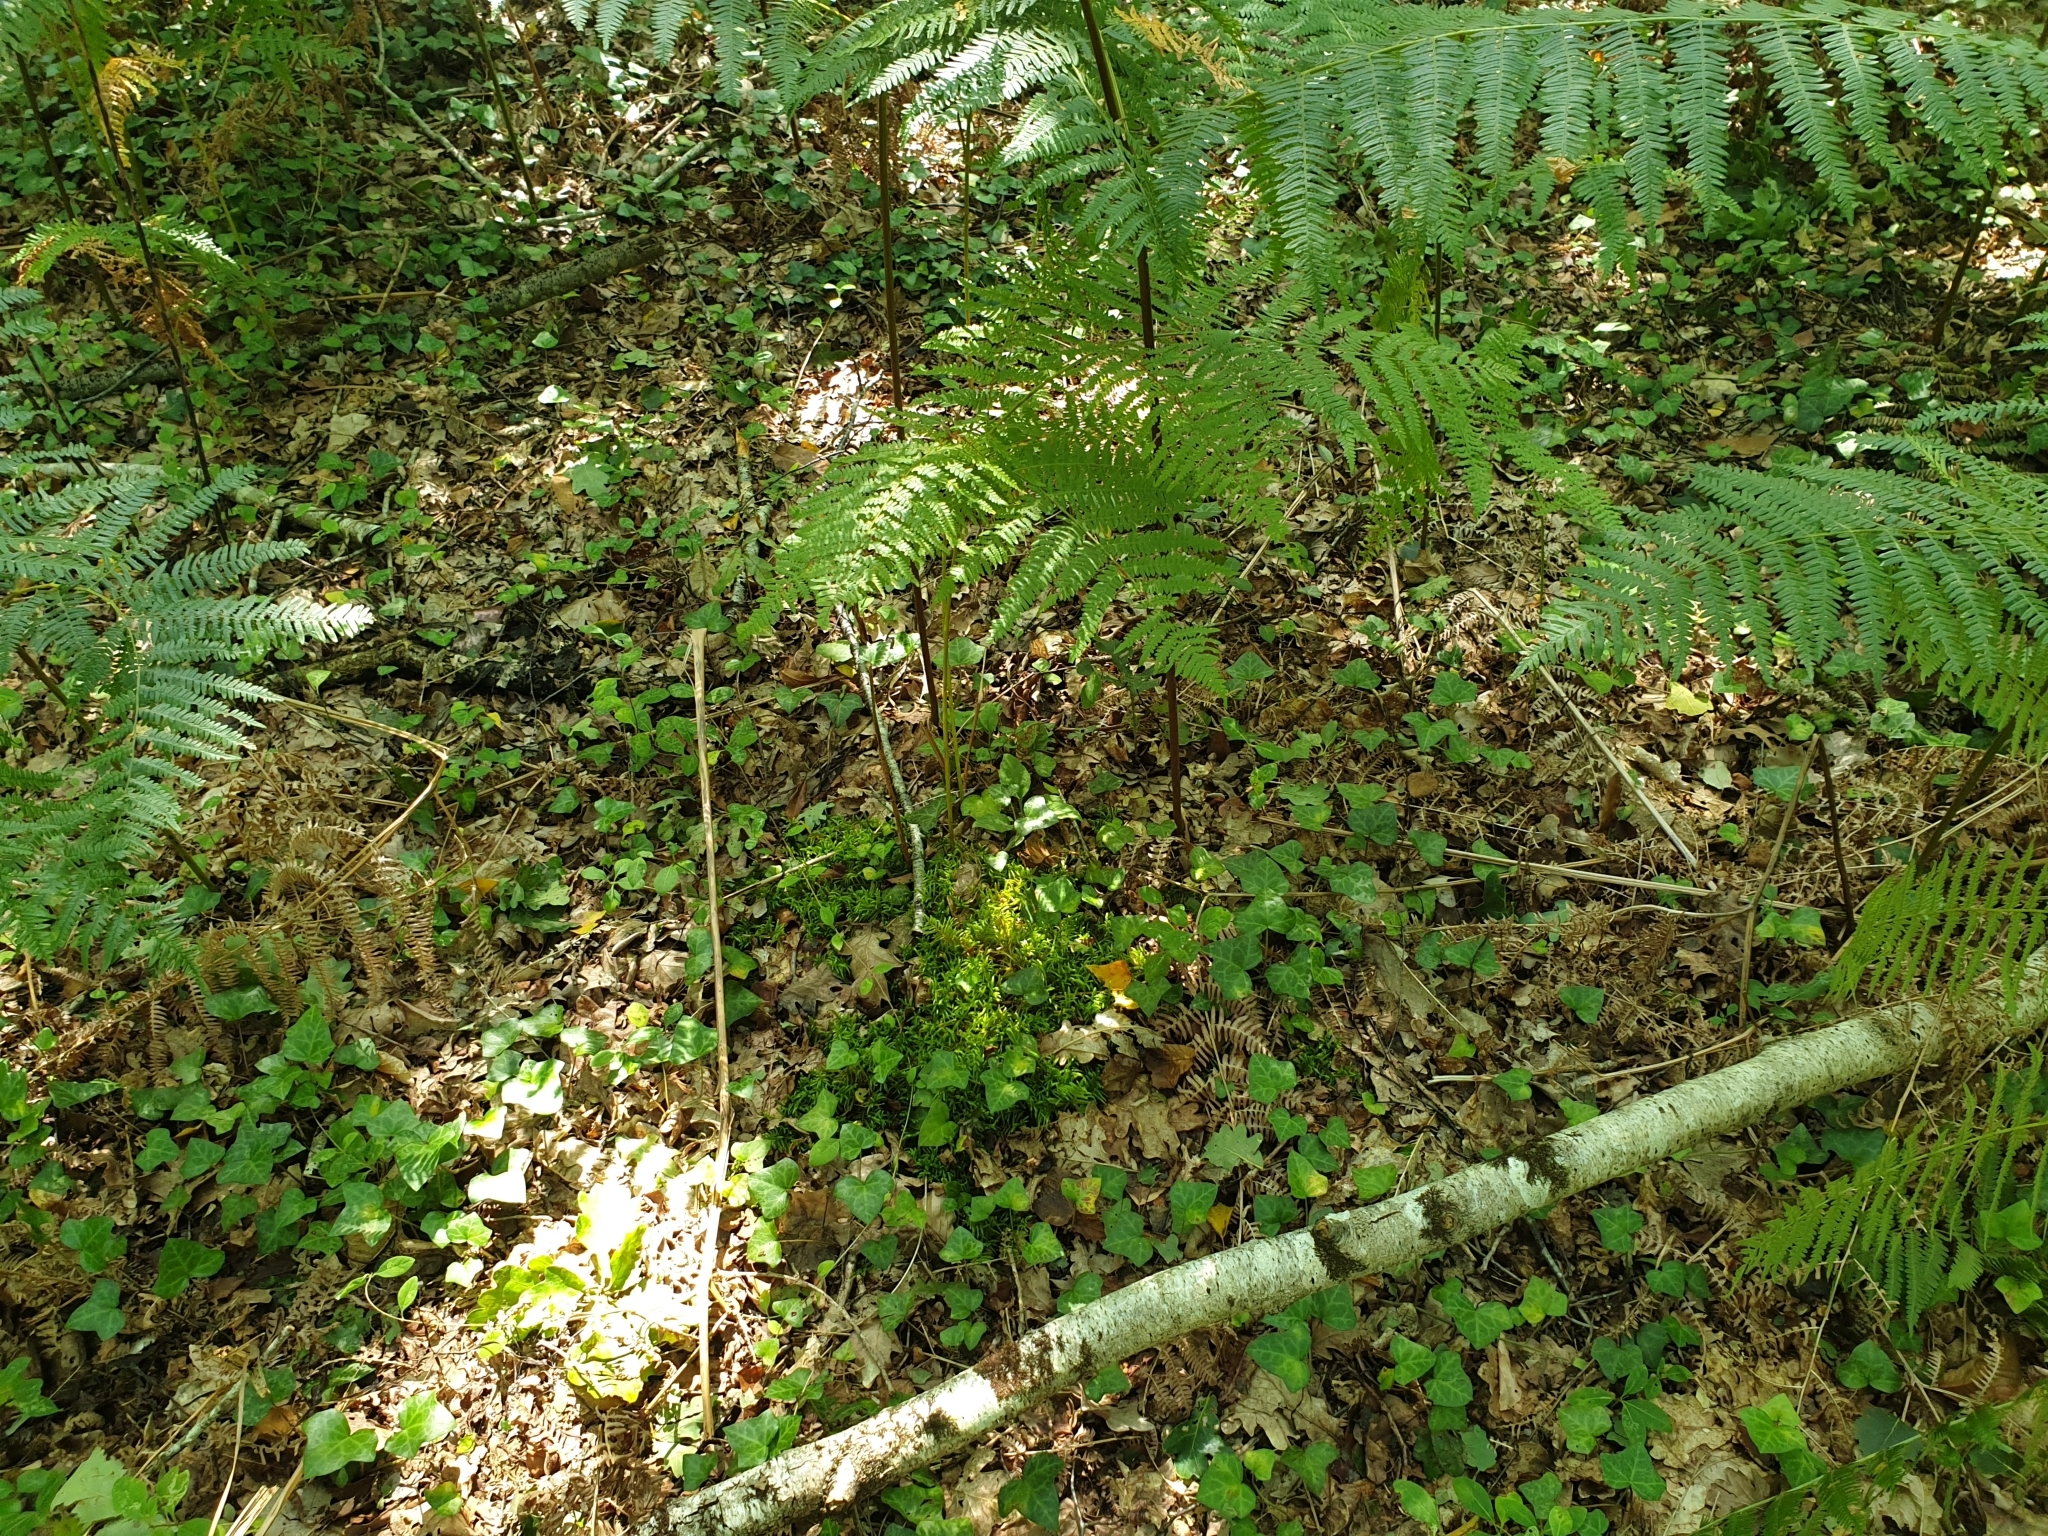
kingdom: Plantae
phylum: Bryophyta
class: Bryopsida
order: Hypnales
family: Brachytheciaceae
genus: Pseudoscleropodium
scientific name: Pseudoscleropodium purum
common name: Neat feather-moss
